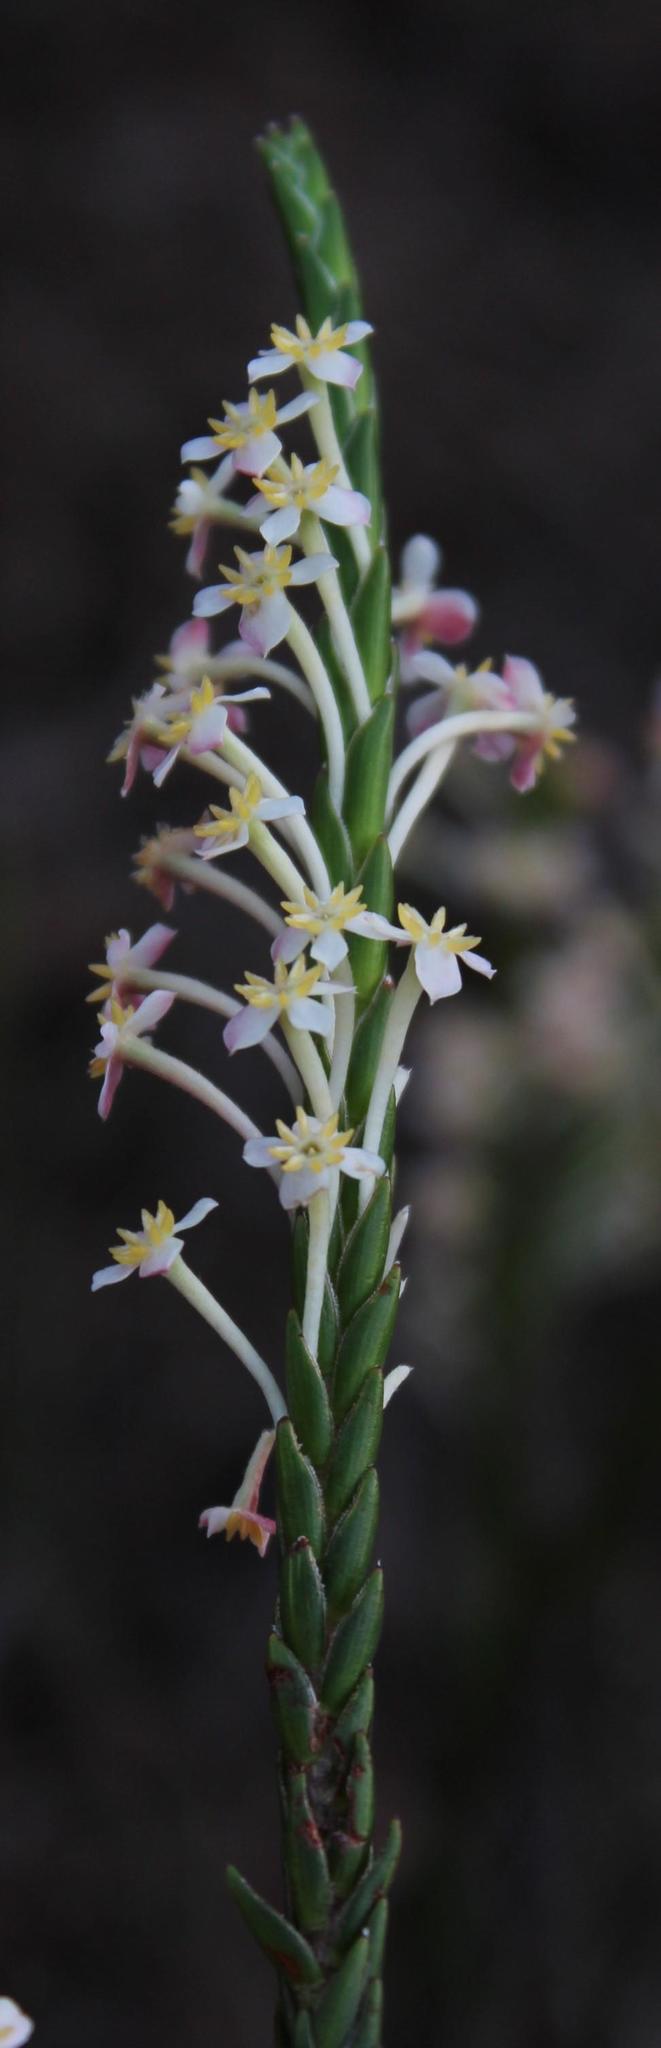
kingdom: Plantae
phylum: Tracheophyta
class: Magnoliopsida
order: Malvales
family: Thymelaeaceae
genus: Struthiola
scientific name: Struthiola ciliata
